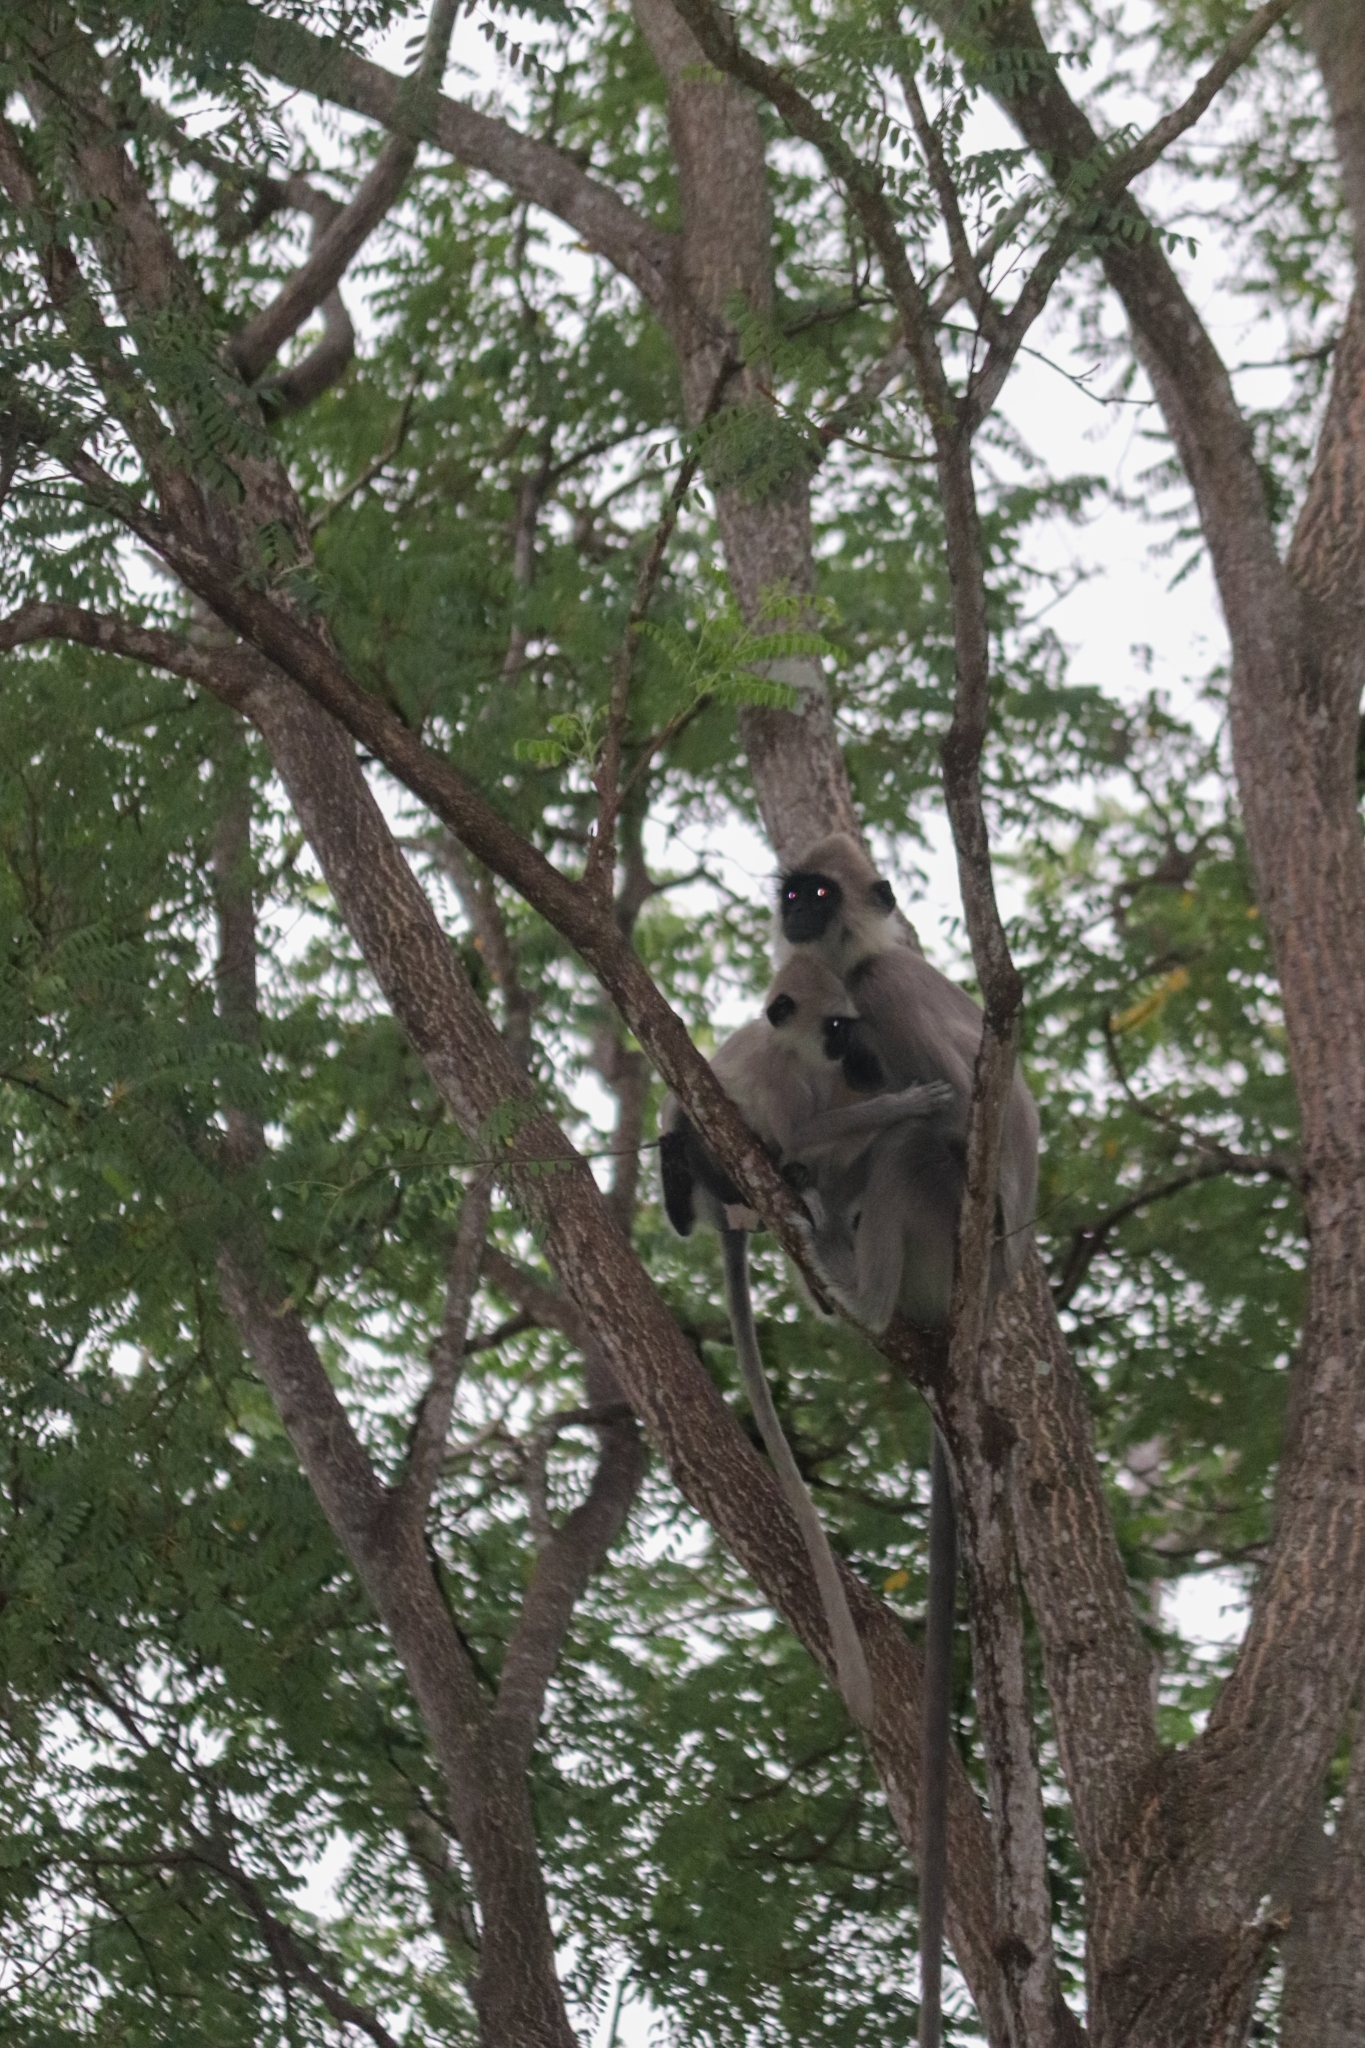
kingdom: Animalia
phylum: Chordata
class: Mammalia
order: Primates
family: Cercopithecidae
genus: Semnopithecus
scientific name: Semnopithecus priam
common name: Tufted gray langur
